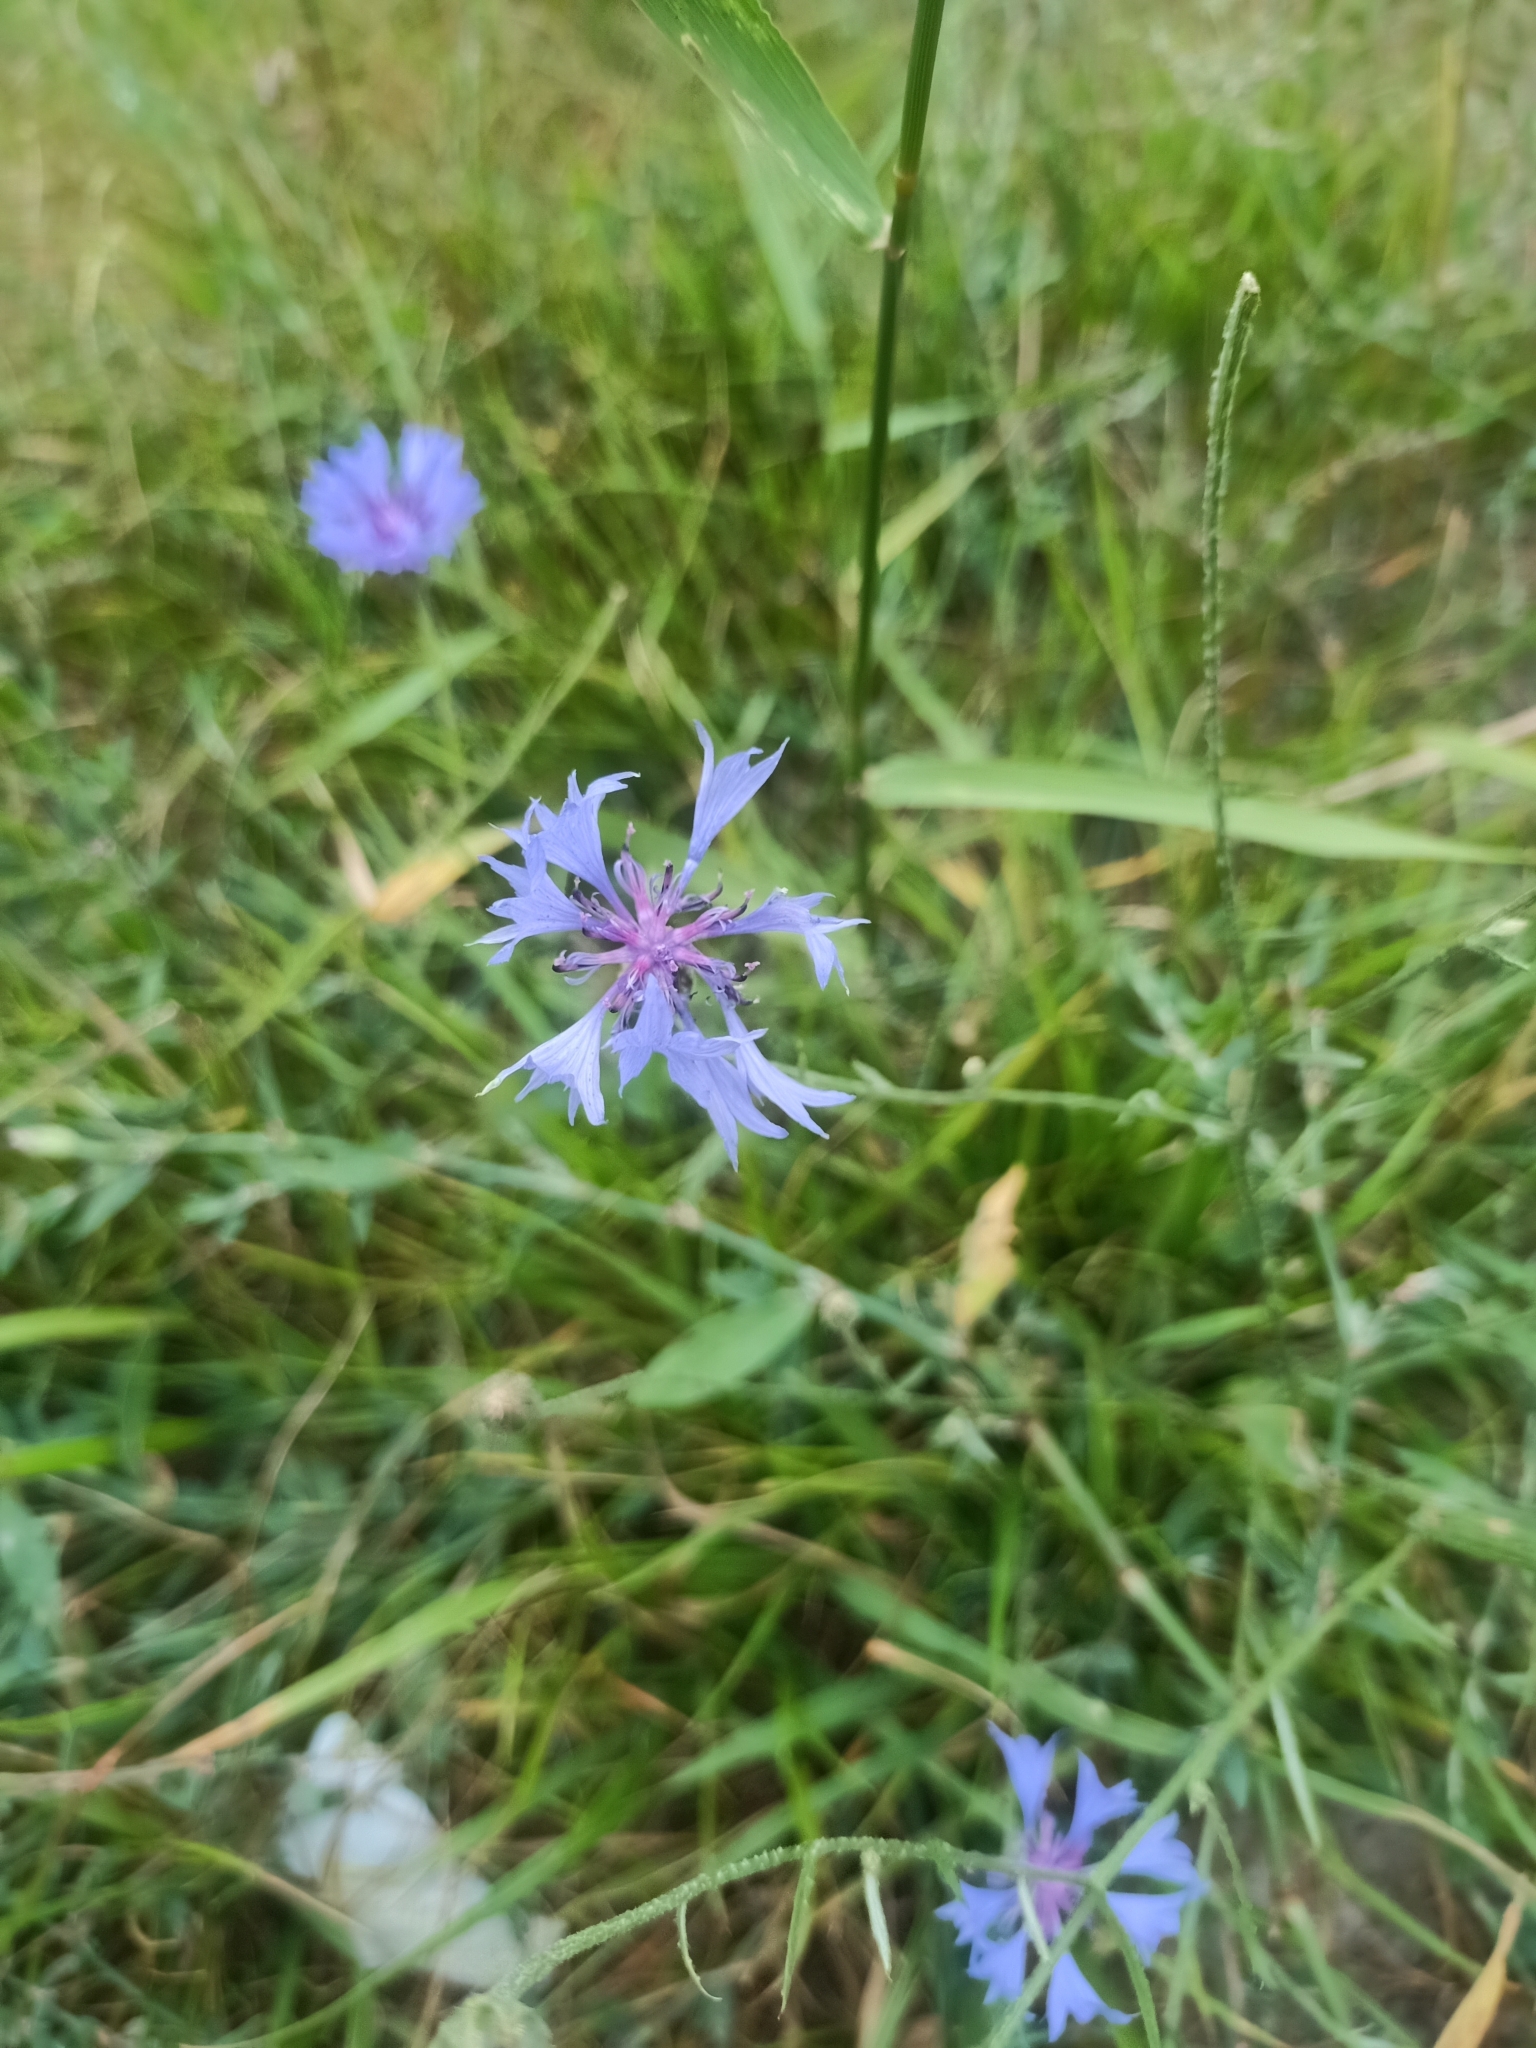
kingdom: Plantae
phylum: Tracheophyta
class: Magnoliopsida
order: Asterales
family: Asteraceae
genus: Centaurea
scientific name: Centaurea cyanus
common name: Cornflower
